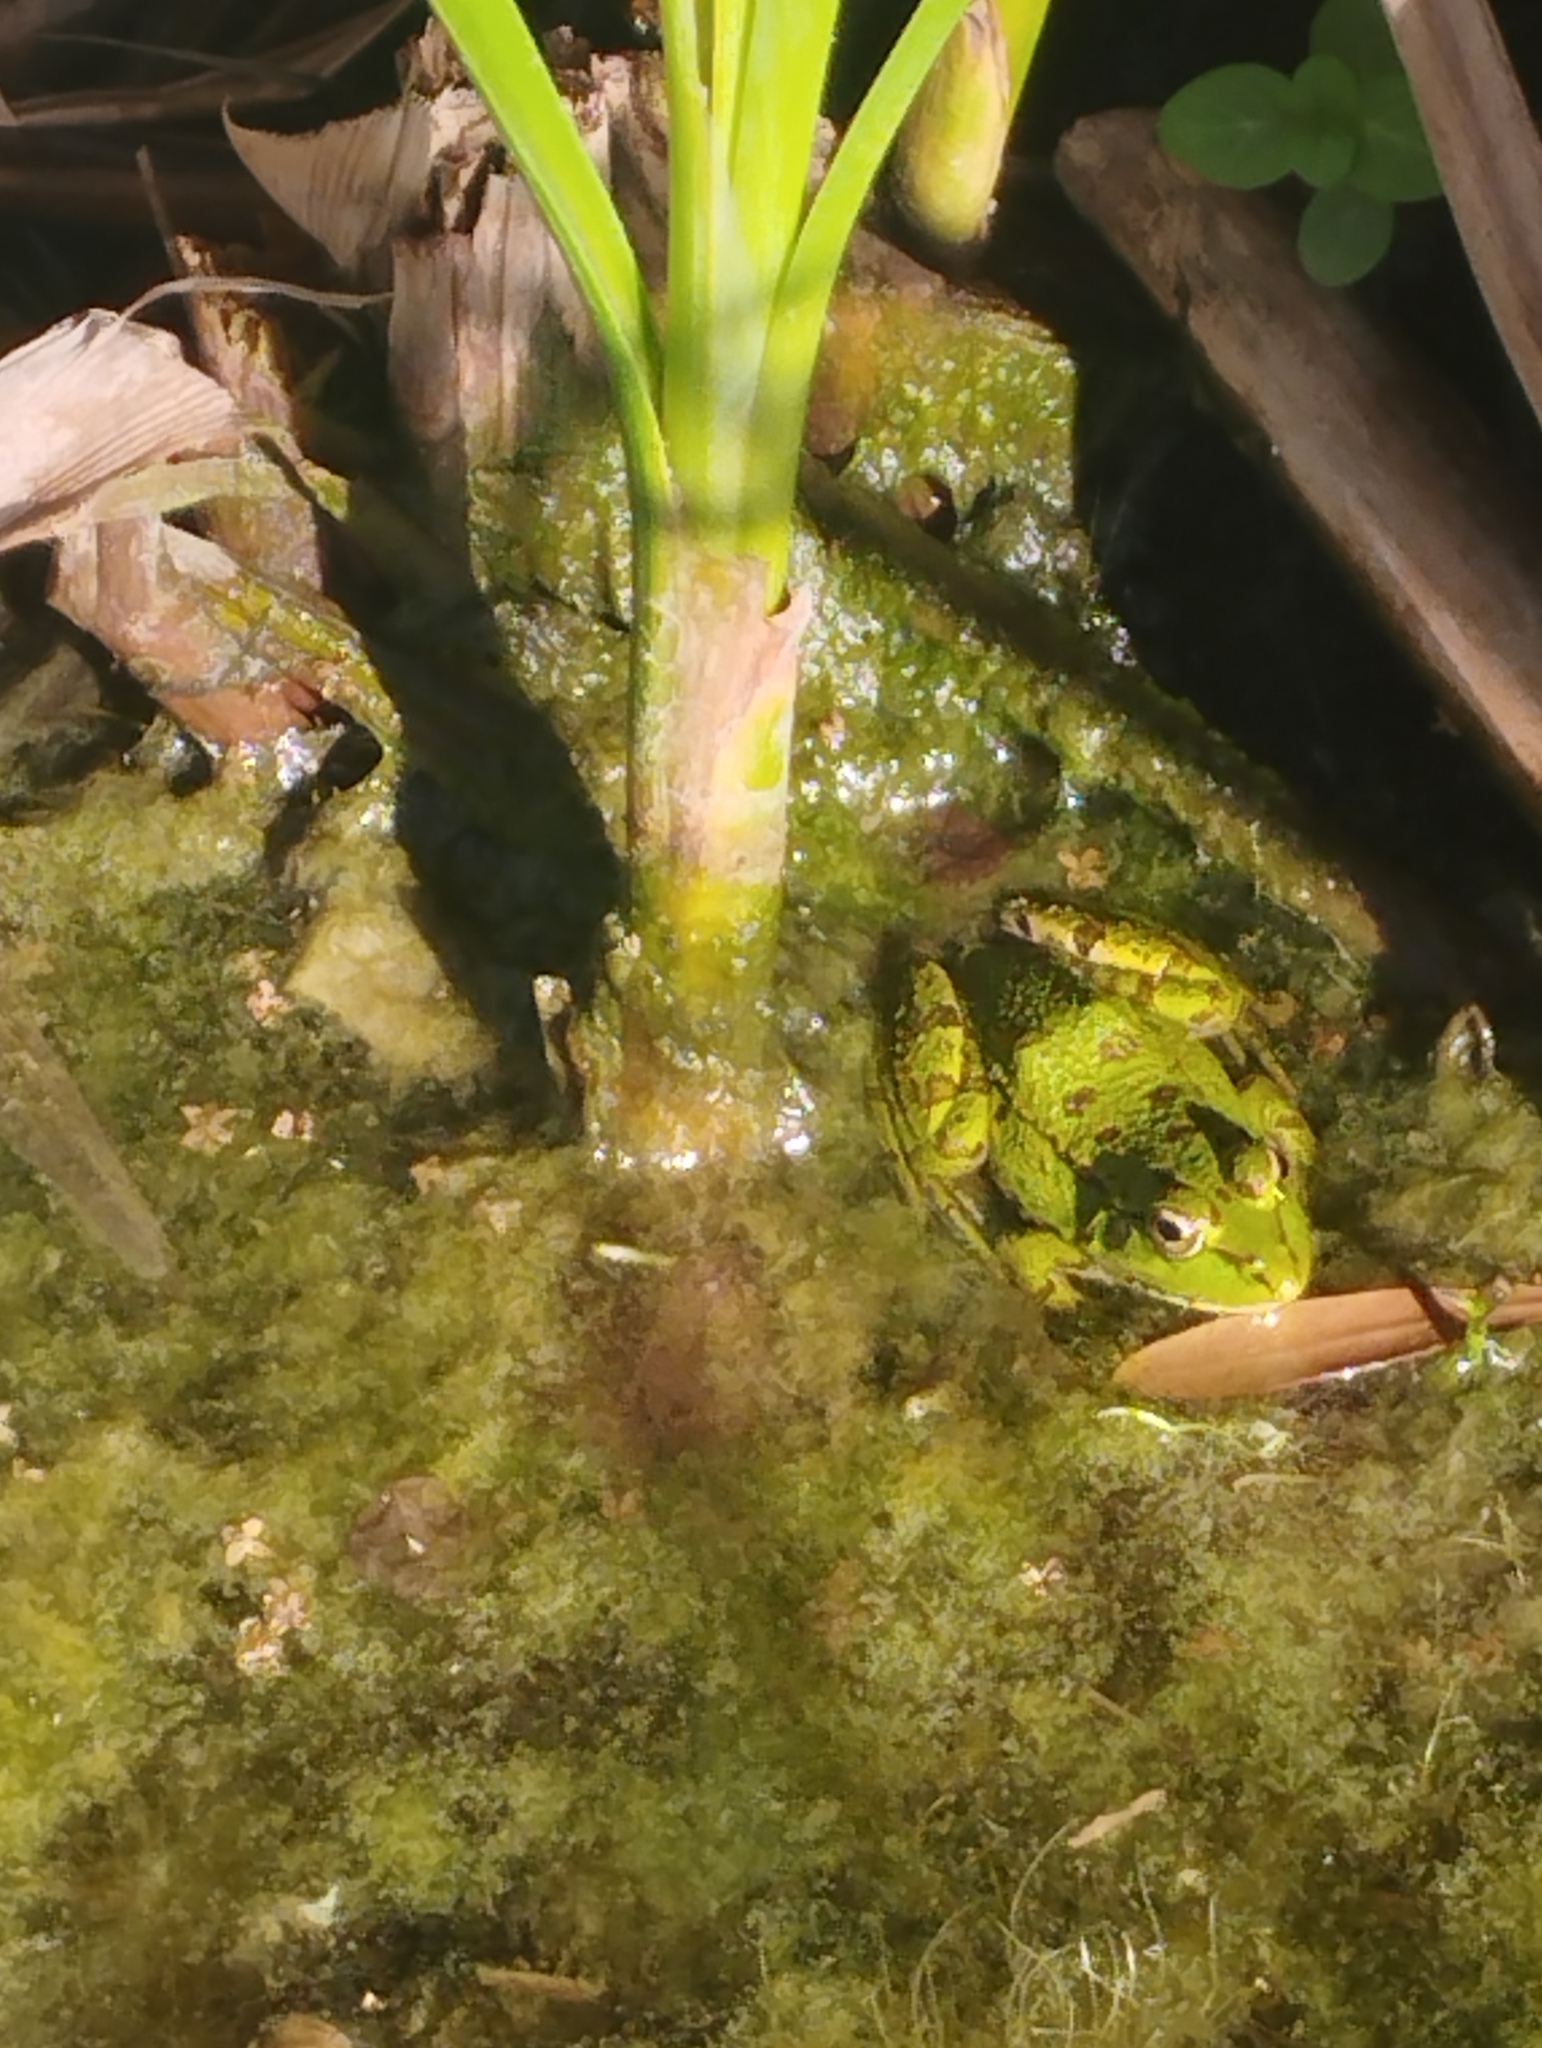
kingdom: Animalia
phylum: Chordata
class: Amphibia
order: Anura
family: Ranidae
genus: Pelophylax
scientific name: Pelophylax saharicus
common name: Sahara frog
